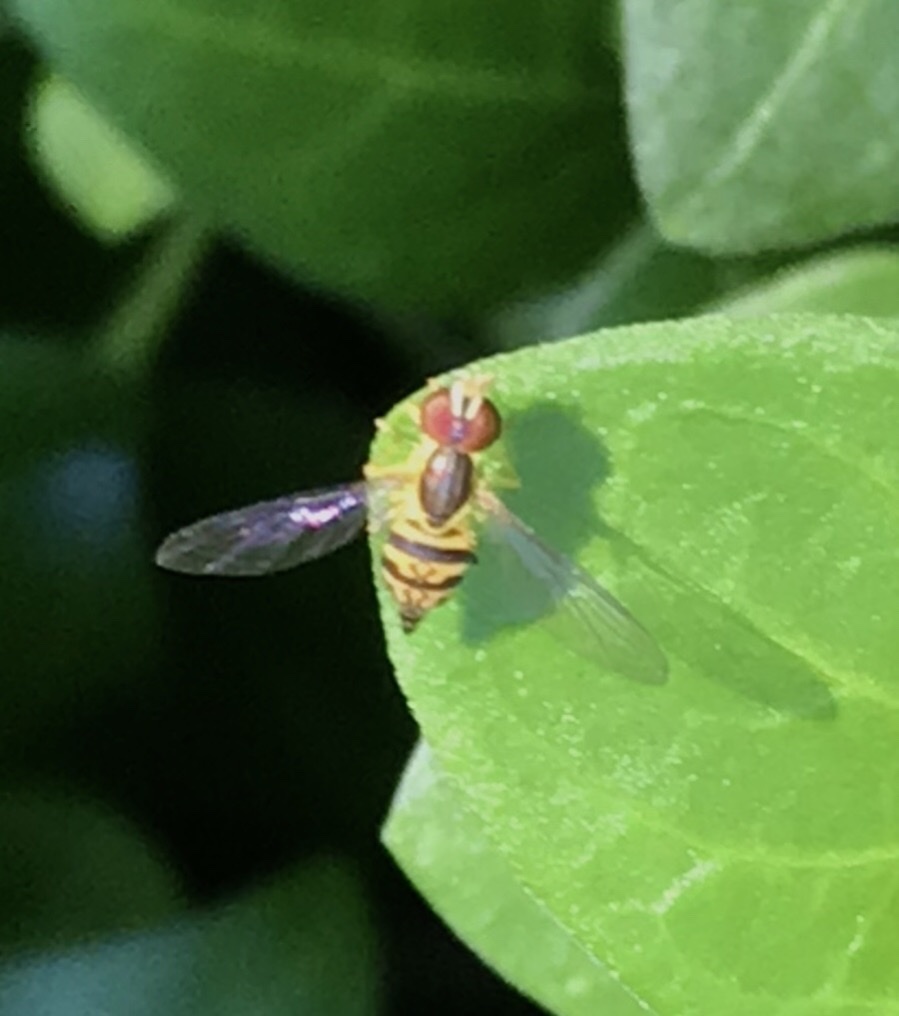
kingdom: Animalia
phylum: Arthropoda
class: Insecta
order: Diptera
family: Syrphidae
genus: Toxomerus
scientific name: Toxomerus geminatus
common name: Eastern calligrapher
